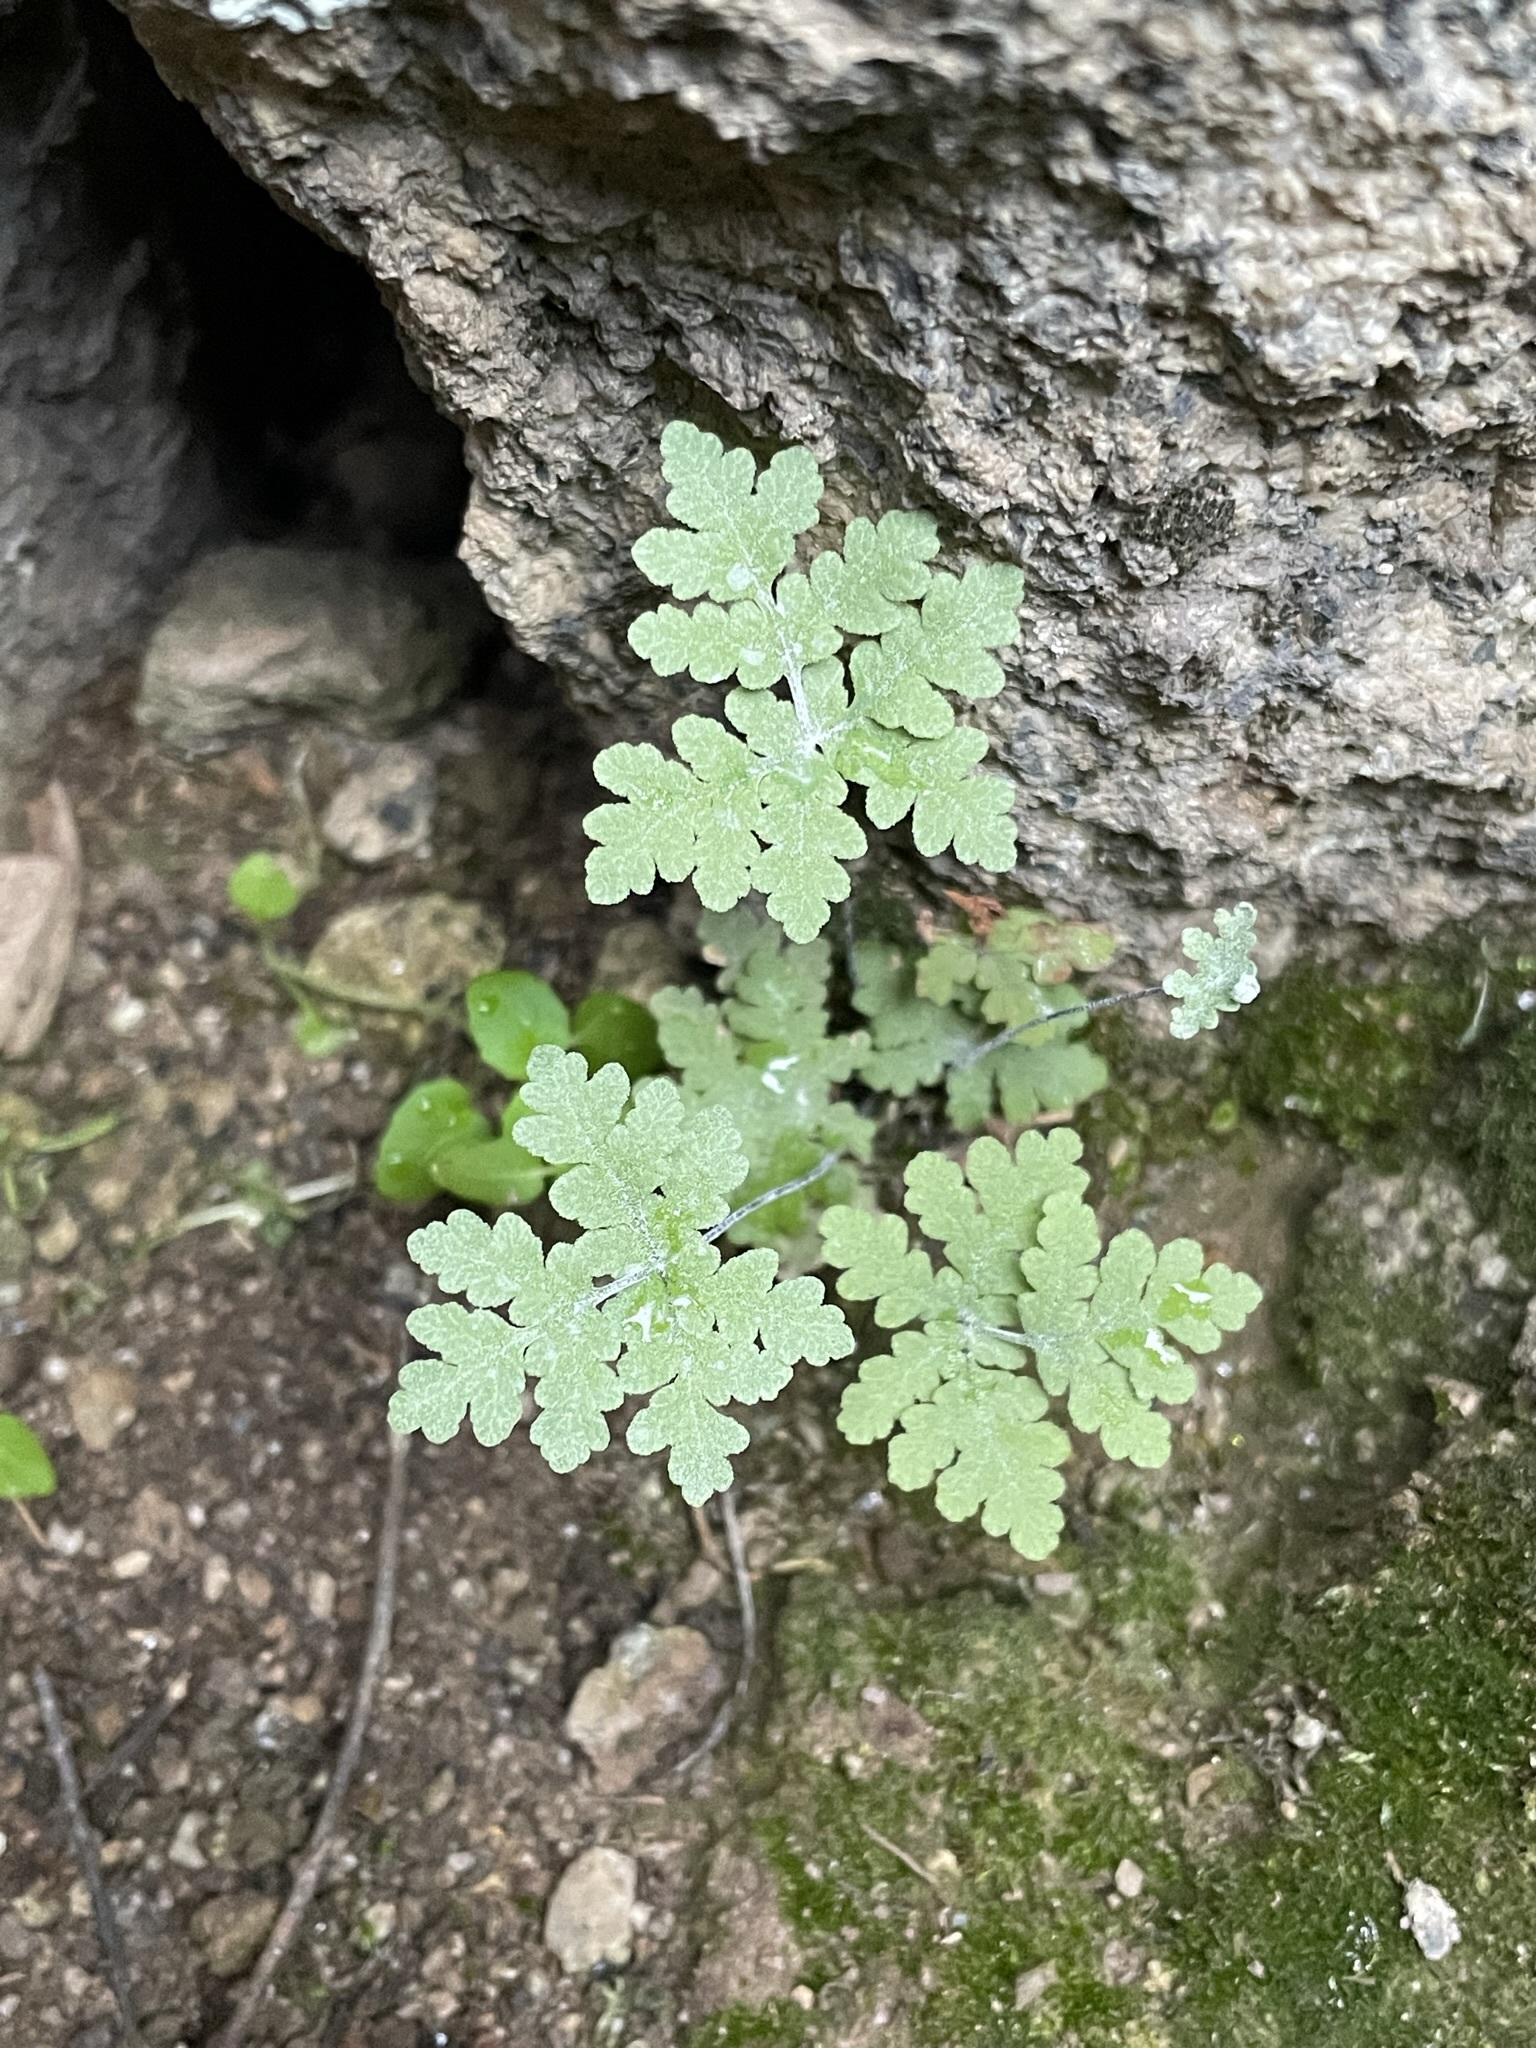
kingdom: Plantae
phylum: Tracheophyta
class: Polypodiopsida
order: Polypodiales
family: Pteridaceae
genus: Pentagramma
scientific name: Pentagramma pallida
